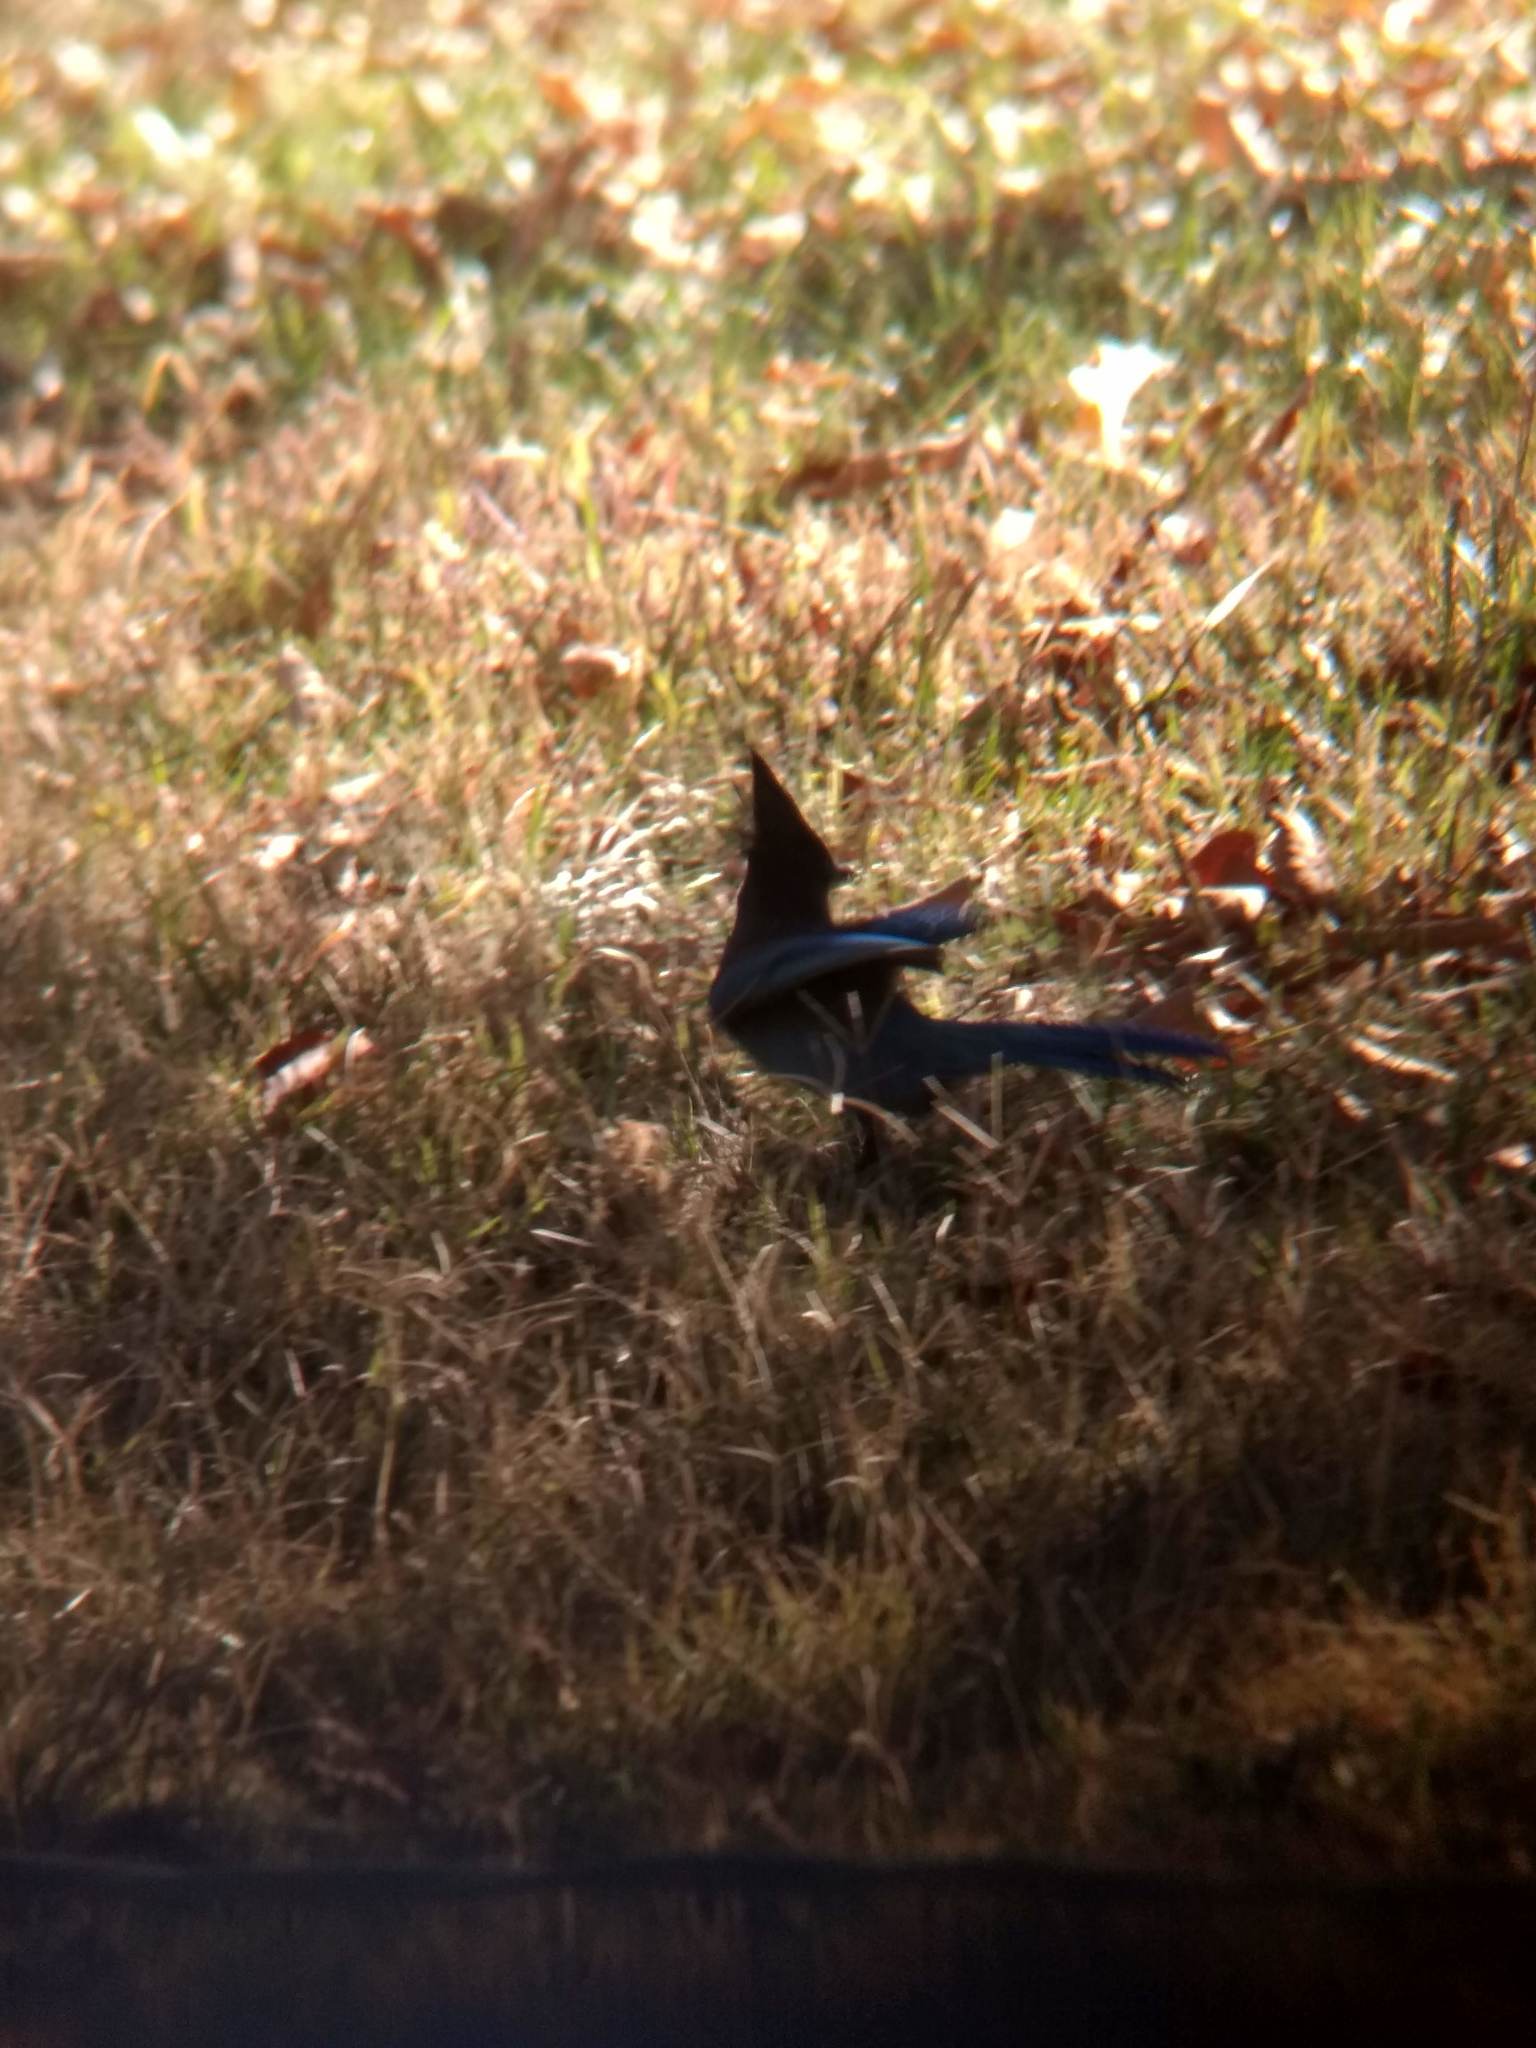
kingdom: Animalia
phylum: Chordata
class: Aves
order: Passeriformes
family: Corvidae
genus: Cyanocitta
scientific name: Cyanocitta stelleri
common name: Steller's jay
